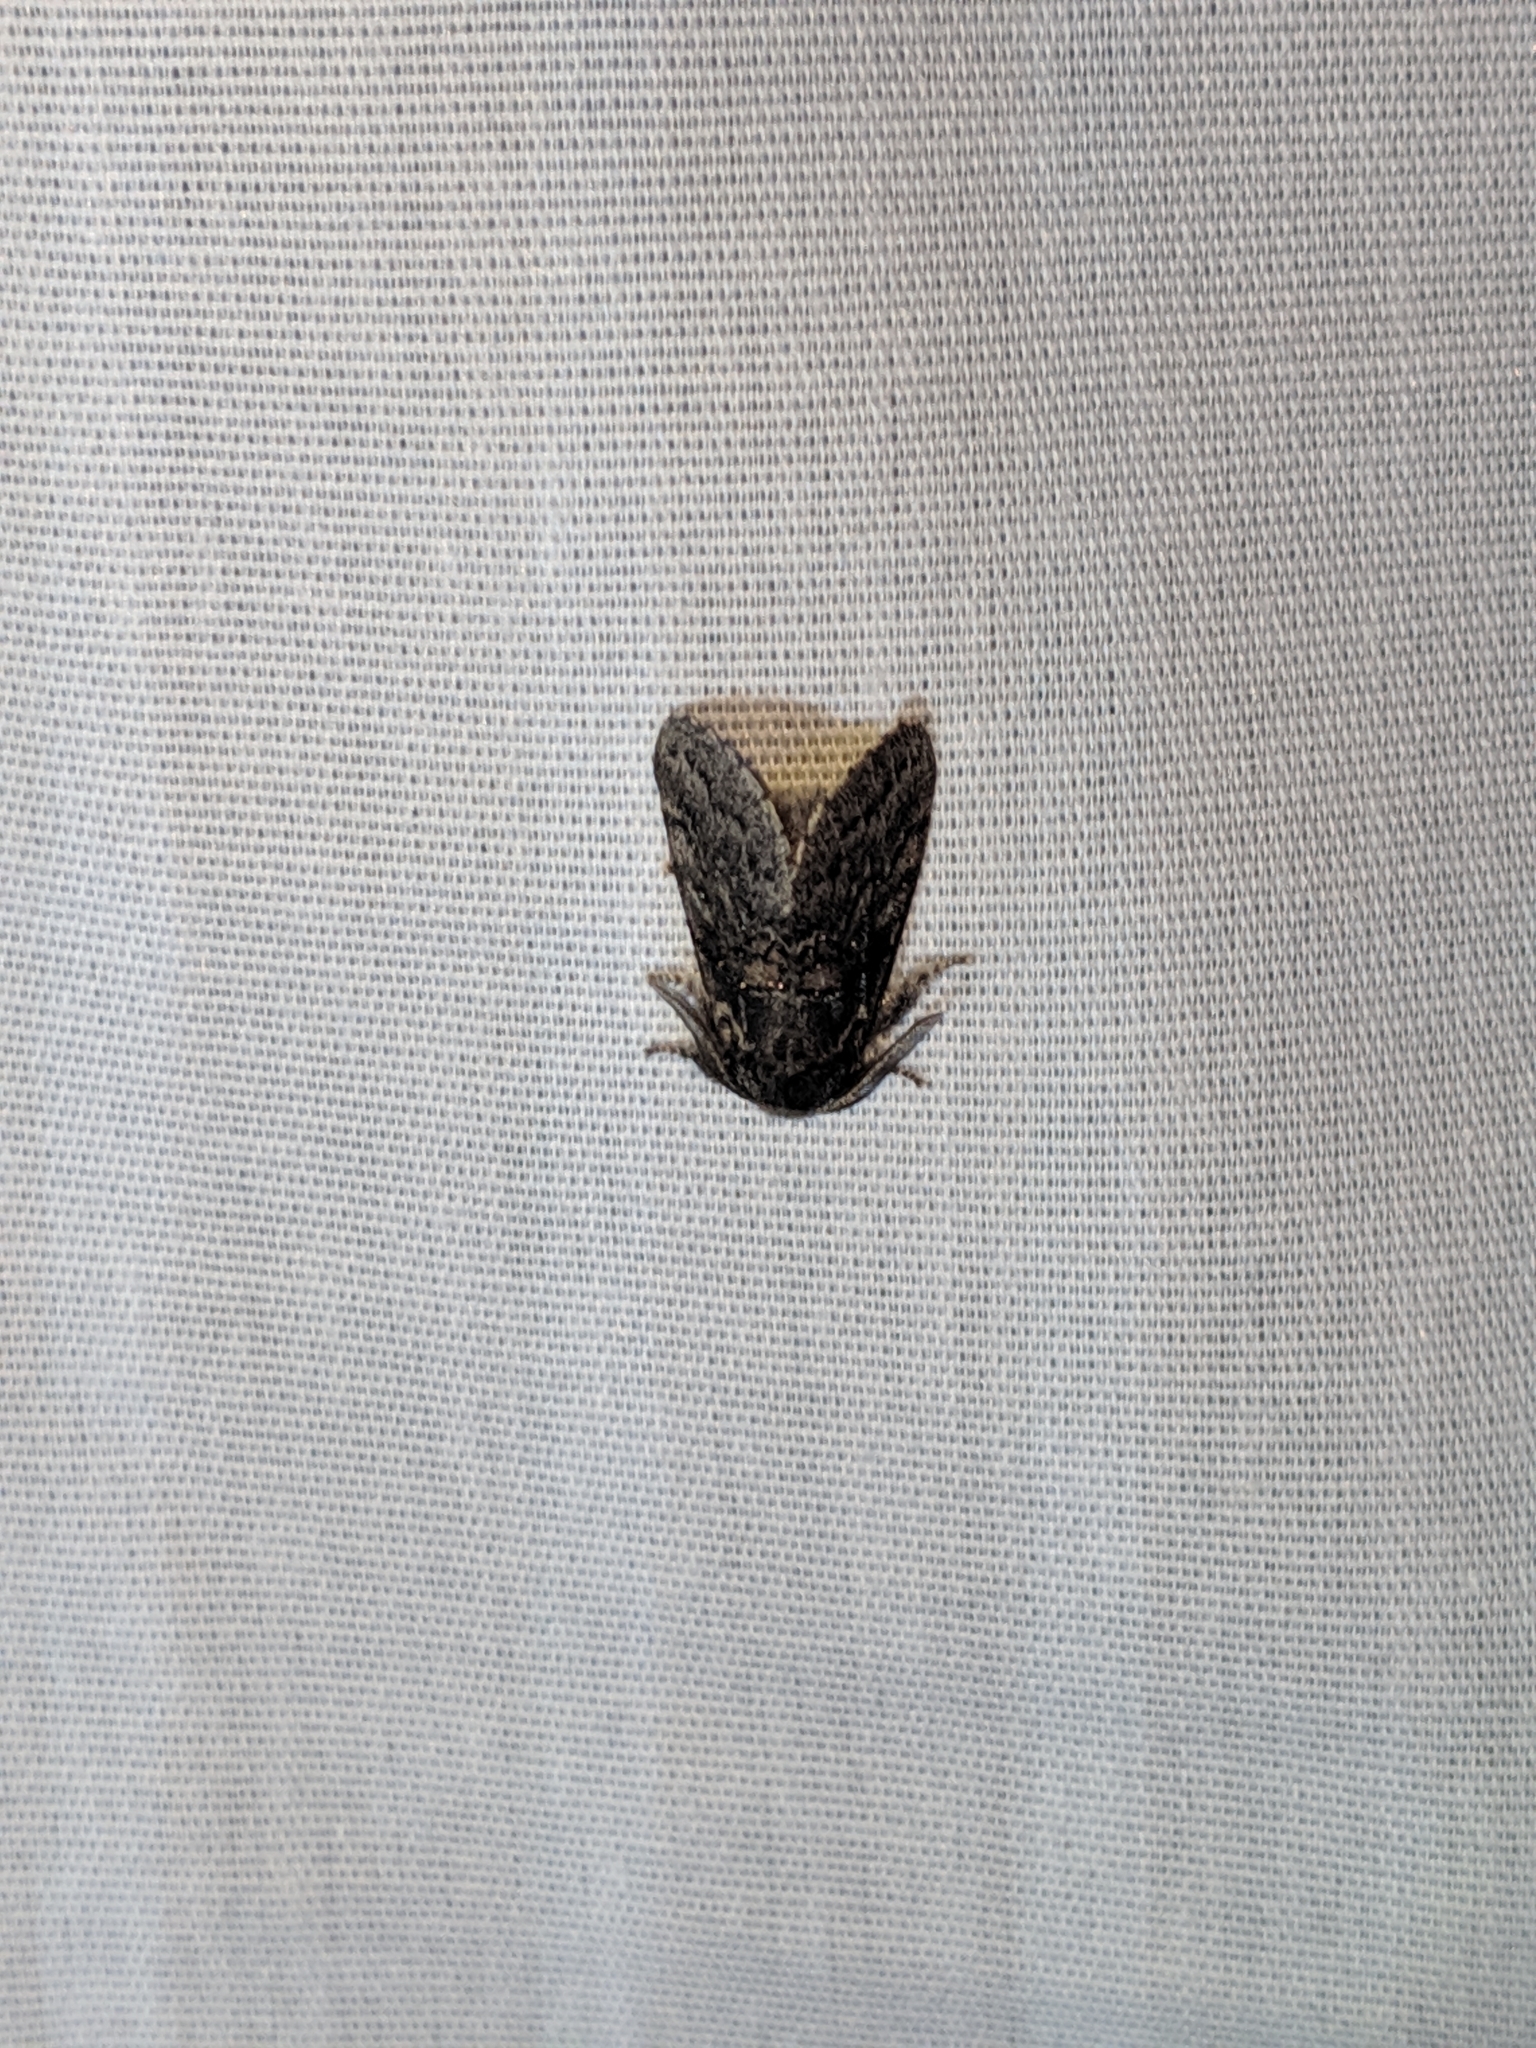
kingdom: Animalia
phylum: Arthropoda
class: Insecta
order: Lepidoptera
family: Notodontidae
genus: Gluphisia
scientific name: Gluphisia septentrionis
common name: Common gluphisia
